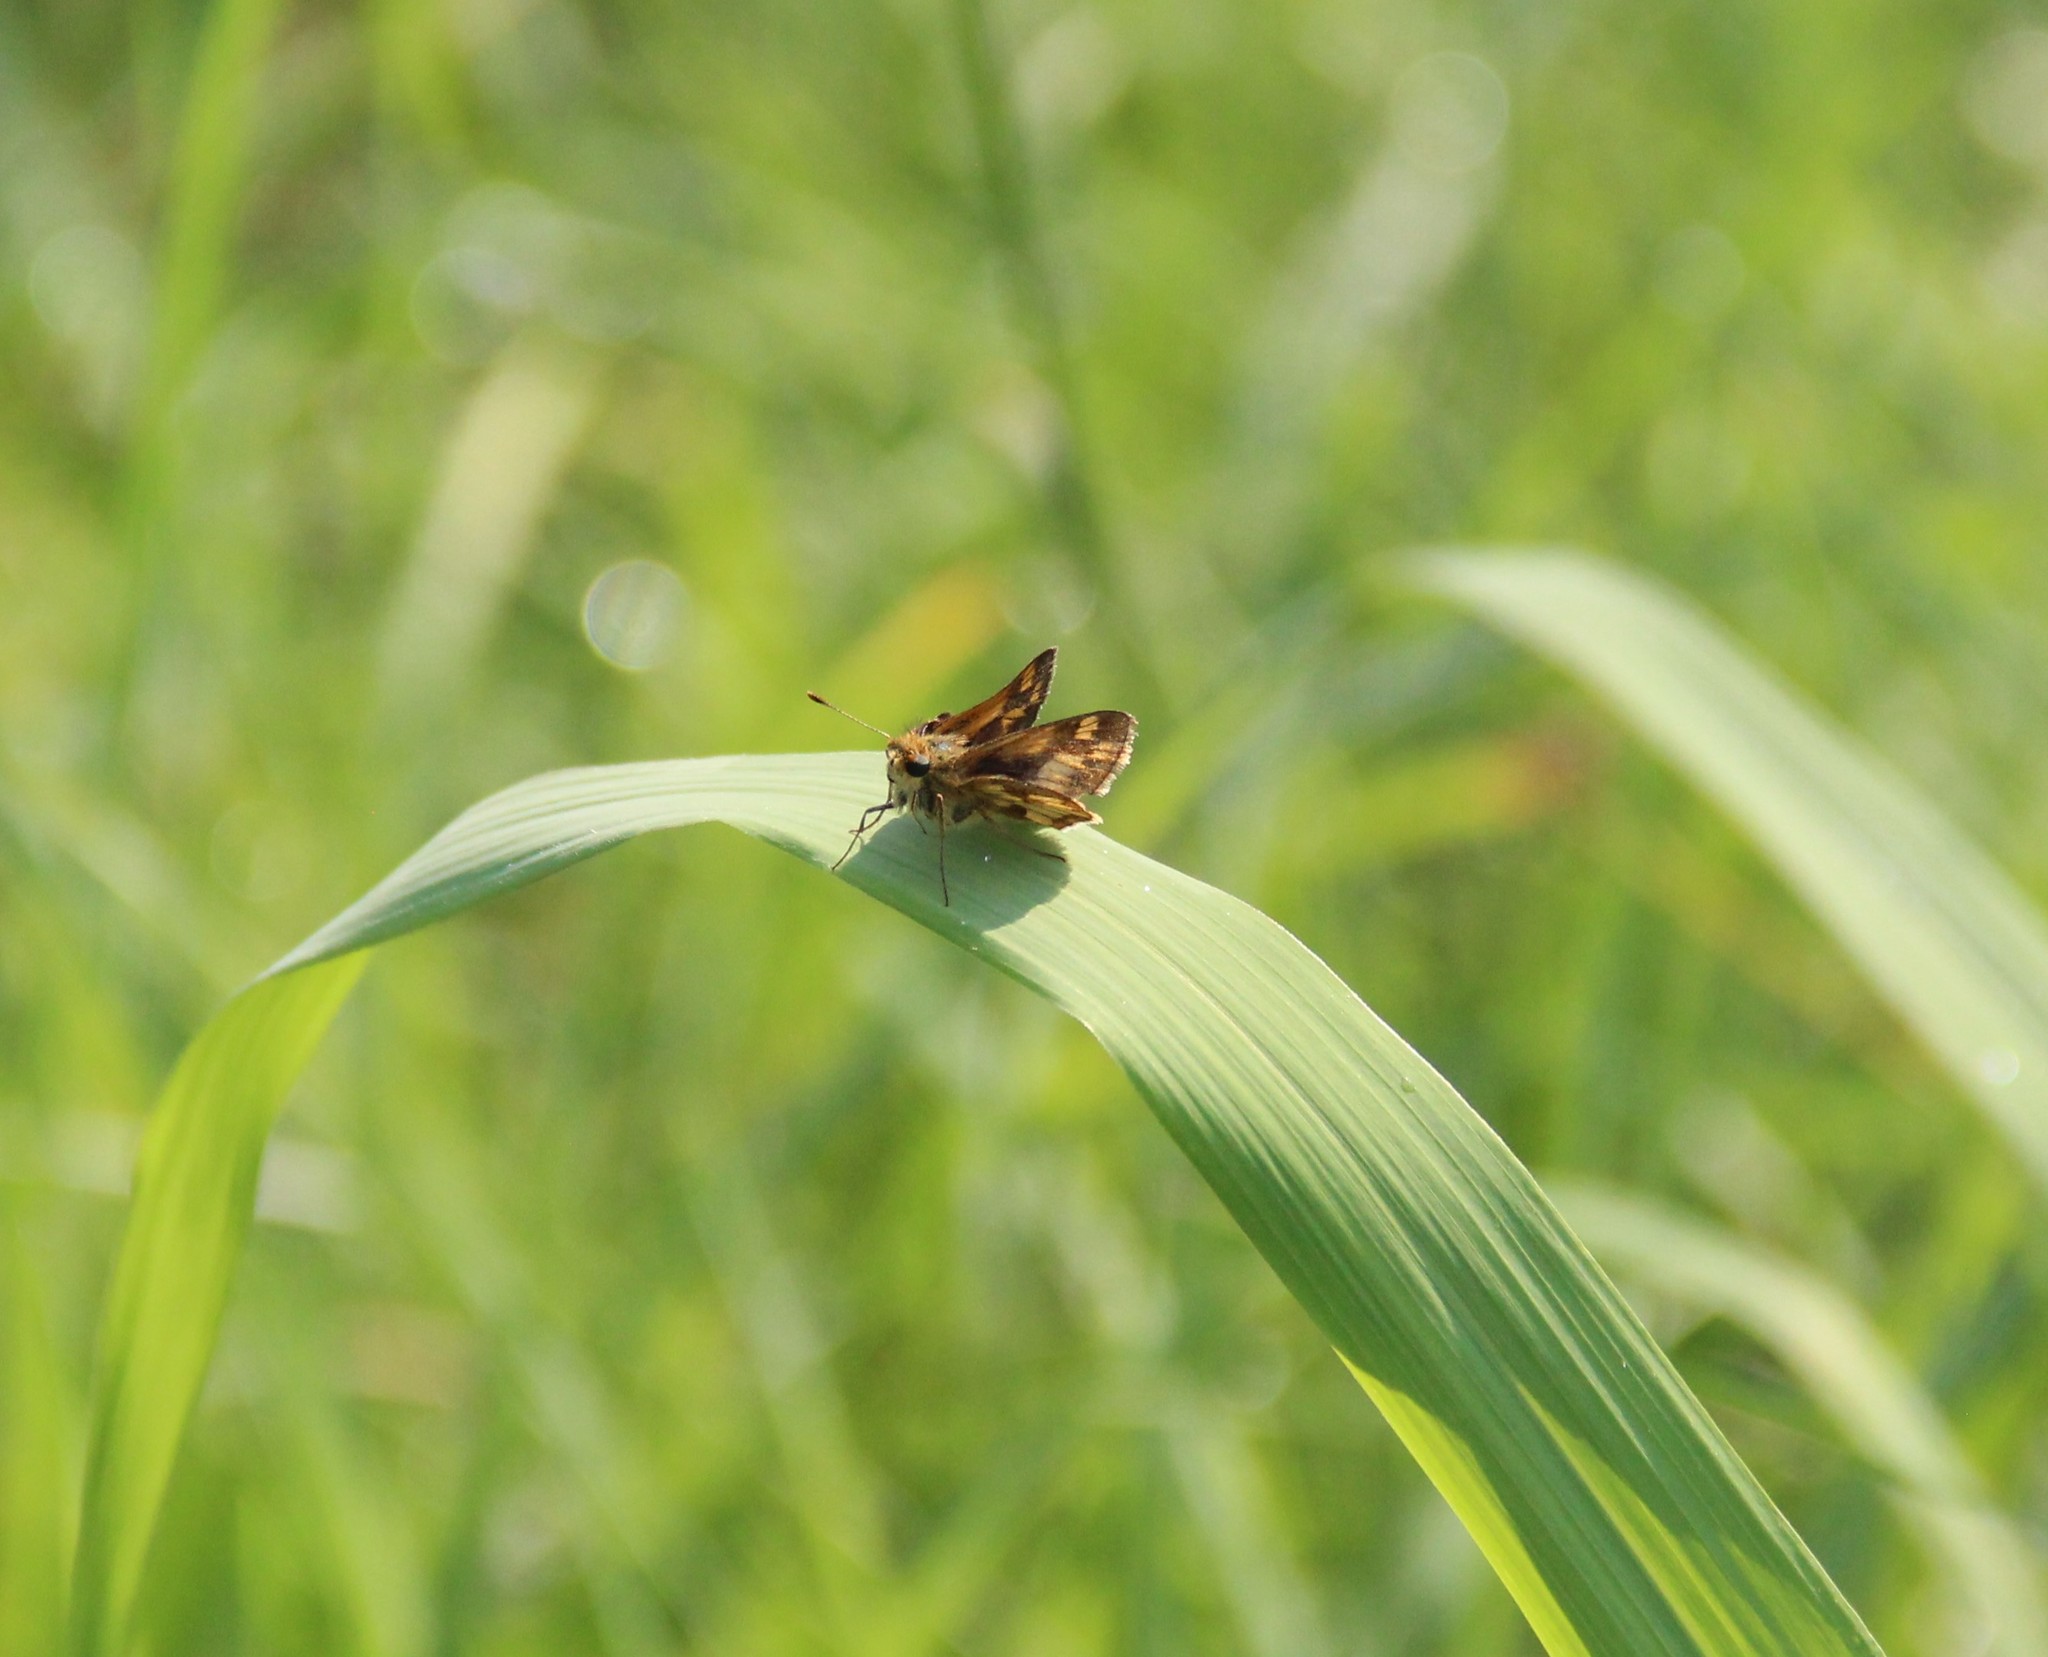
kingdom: Animalia
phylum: Arthropoda
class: Insecta
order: Lepidoptera
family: Hesperiidae
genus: Polites
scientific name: Polites coras
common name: Peck's skipper
